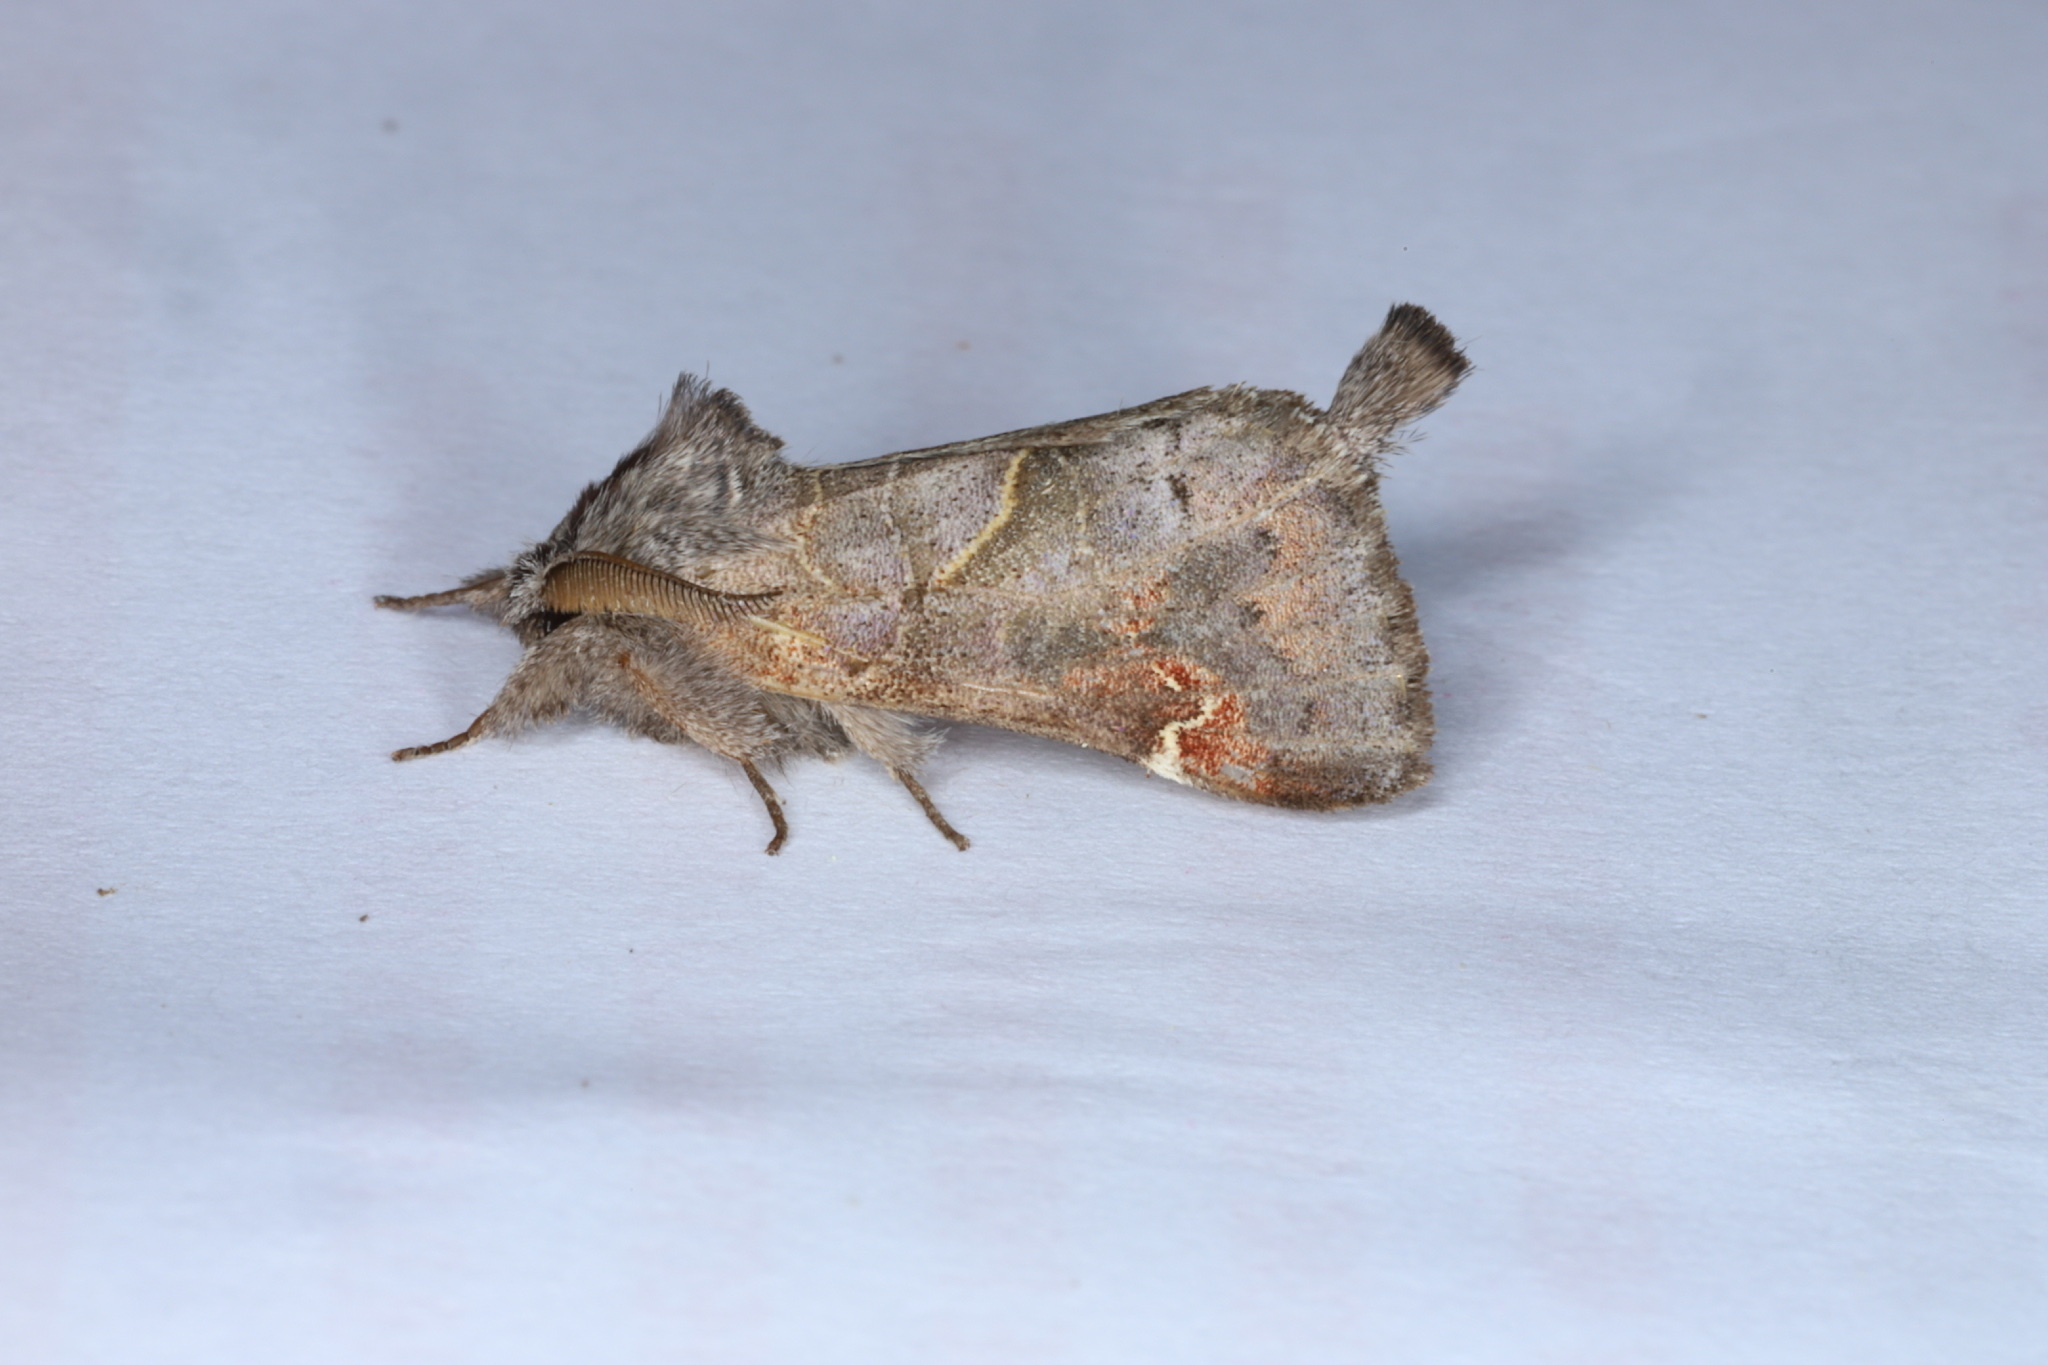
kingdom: Animalia
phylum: Arthropoda
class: Insecta
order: Lepidoptera
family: Notodontidae
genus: Clostera
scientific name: Clostera apicalis
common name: Apical prominent
